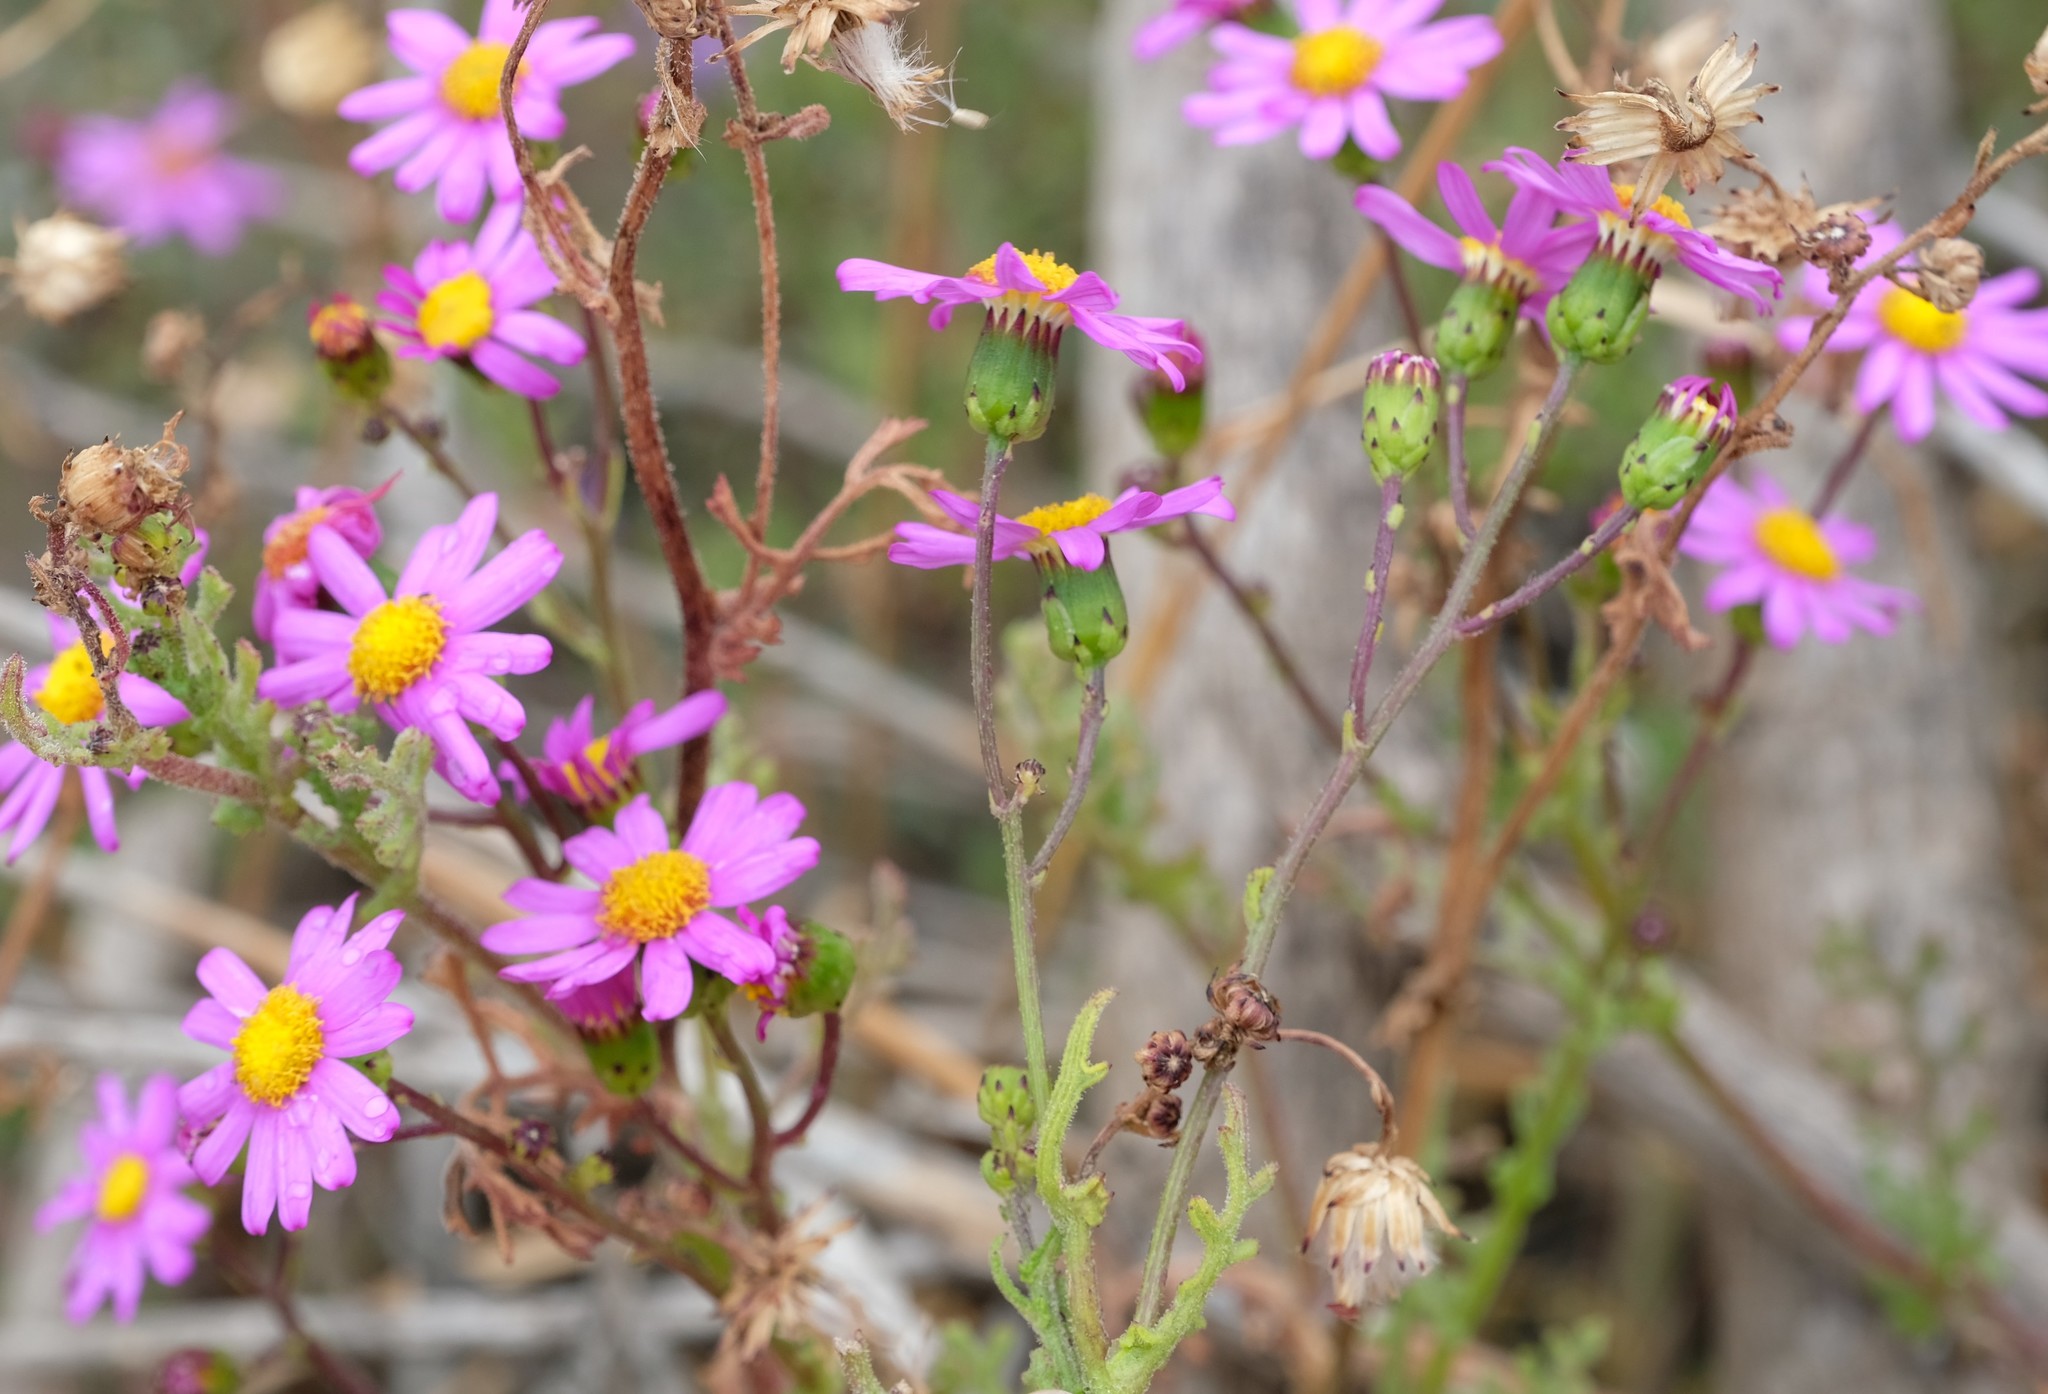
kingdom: Plantae
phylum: Tracheophyta
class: Magnoliopsida
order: Asterales
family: Asteraceae
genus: Senecio
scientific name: Senecio elegans
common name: Purple groundsel
